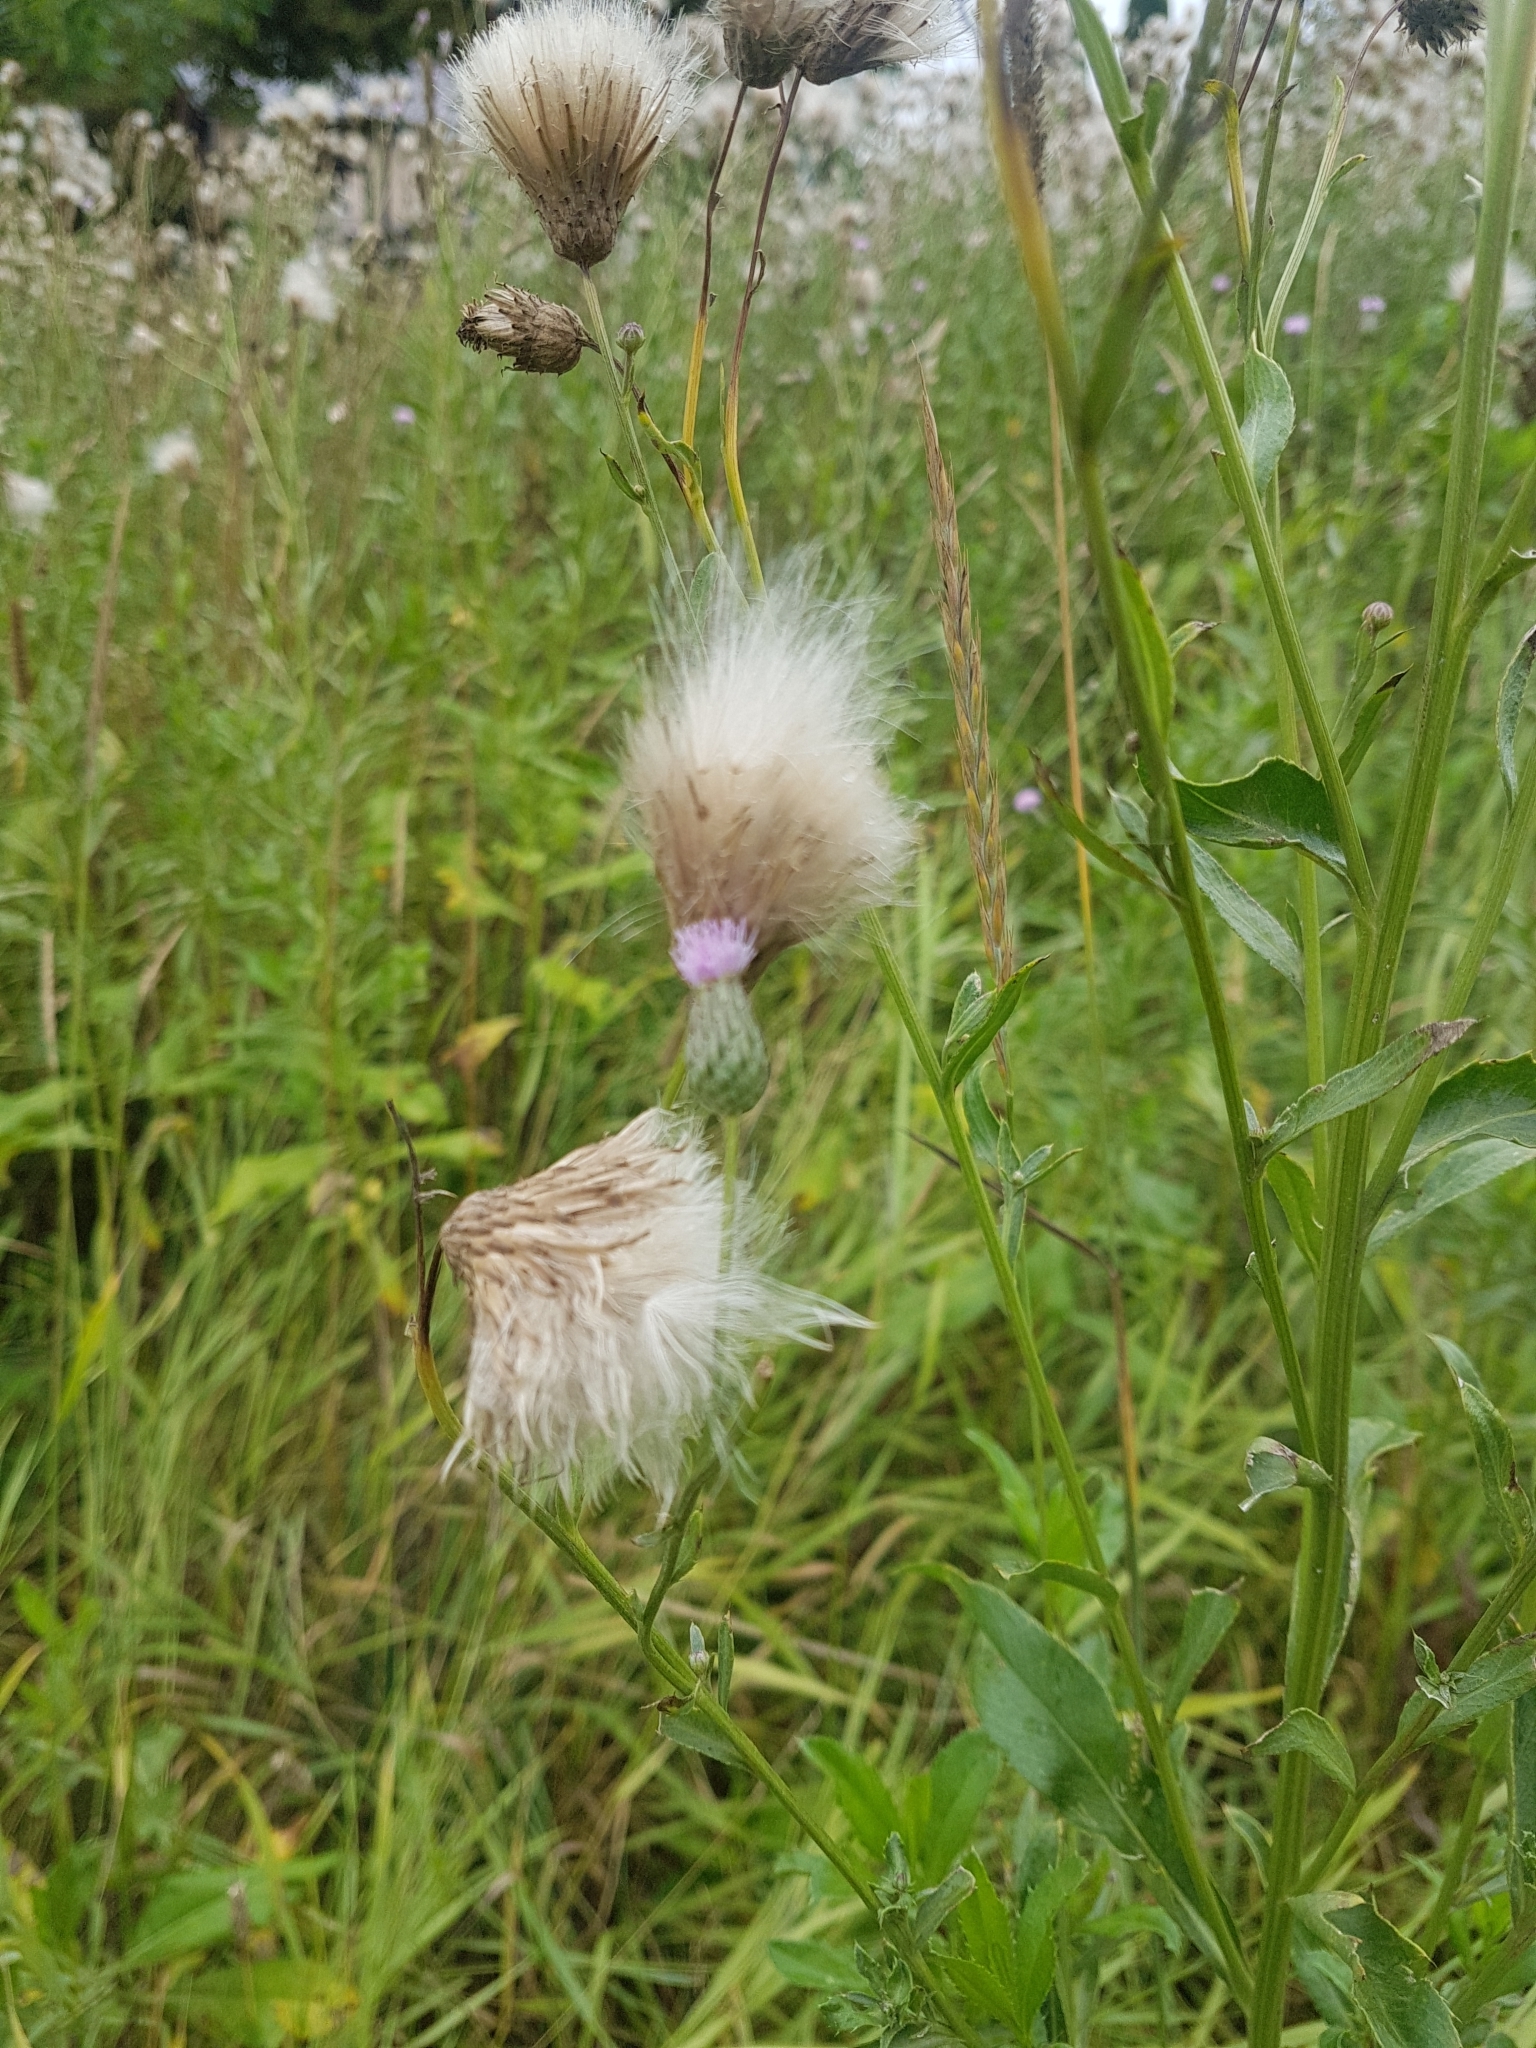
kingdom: Plantae
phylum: Tracheophyta
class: Magnoliopsida
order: Asterales
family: Asteraceae
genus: Cirsium
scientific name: Cirsium arvense
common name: Creeping thistle
